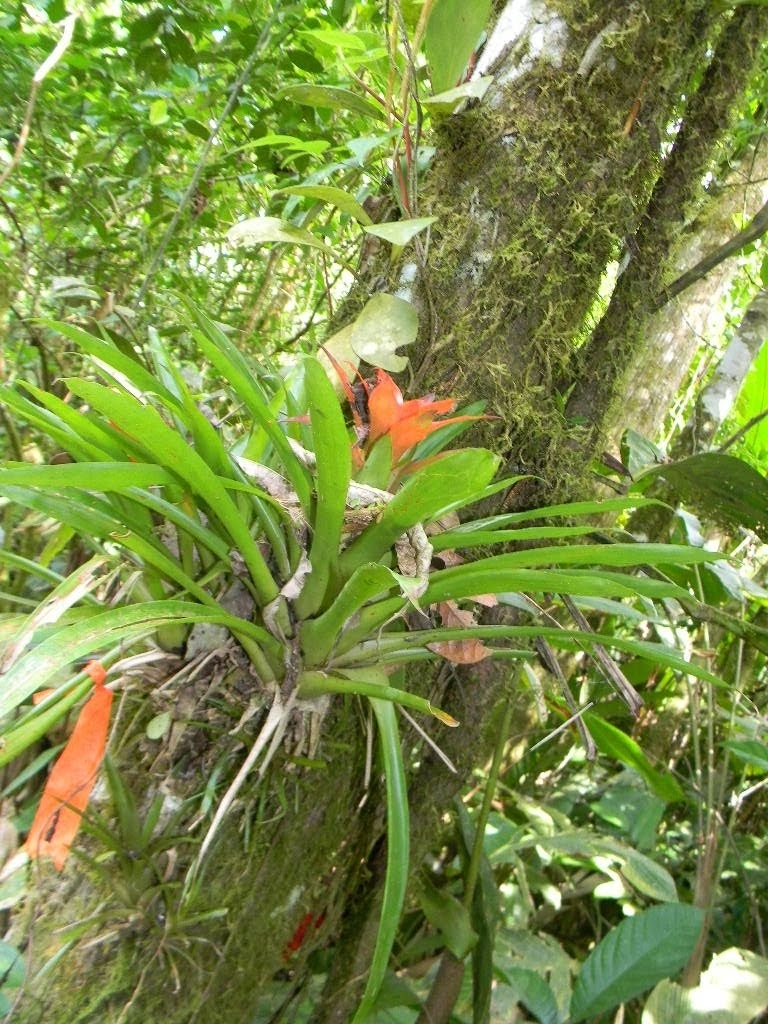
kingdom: Plantae
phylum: Tracheophyta
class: Liliopsida
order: Poales
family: Bromeliaceae
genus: Guzmania
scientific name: Guzmania lingulata
